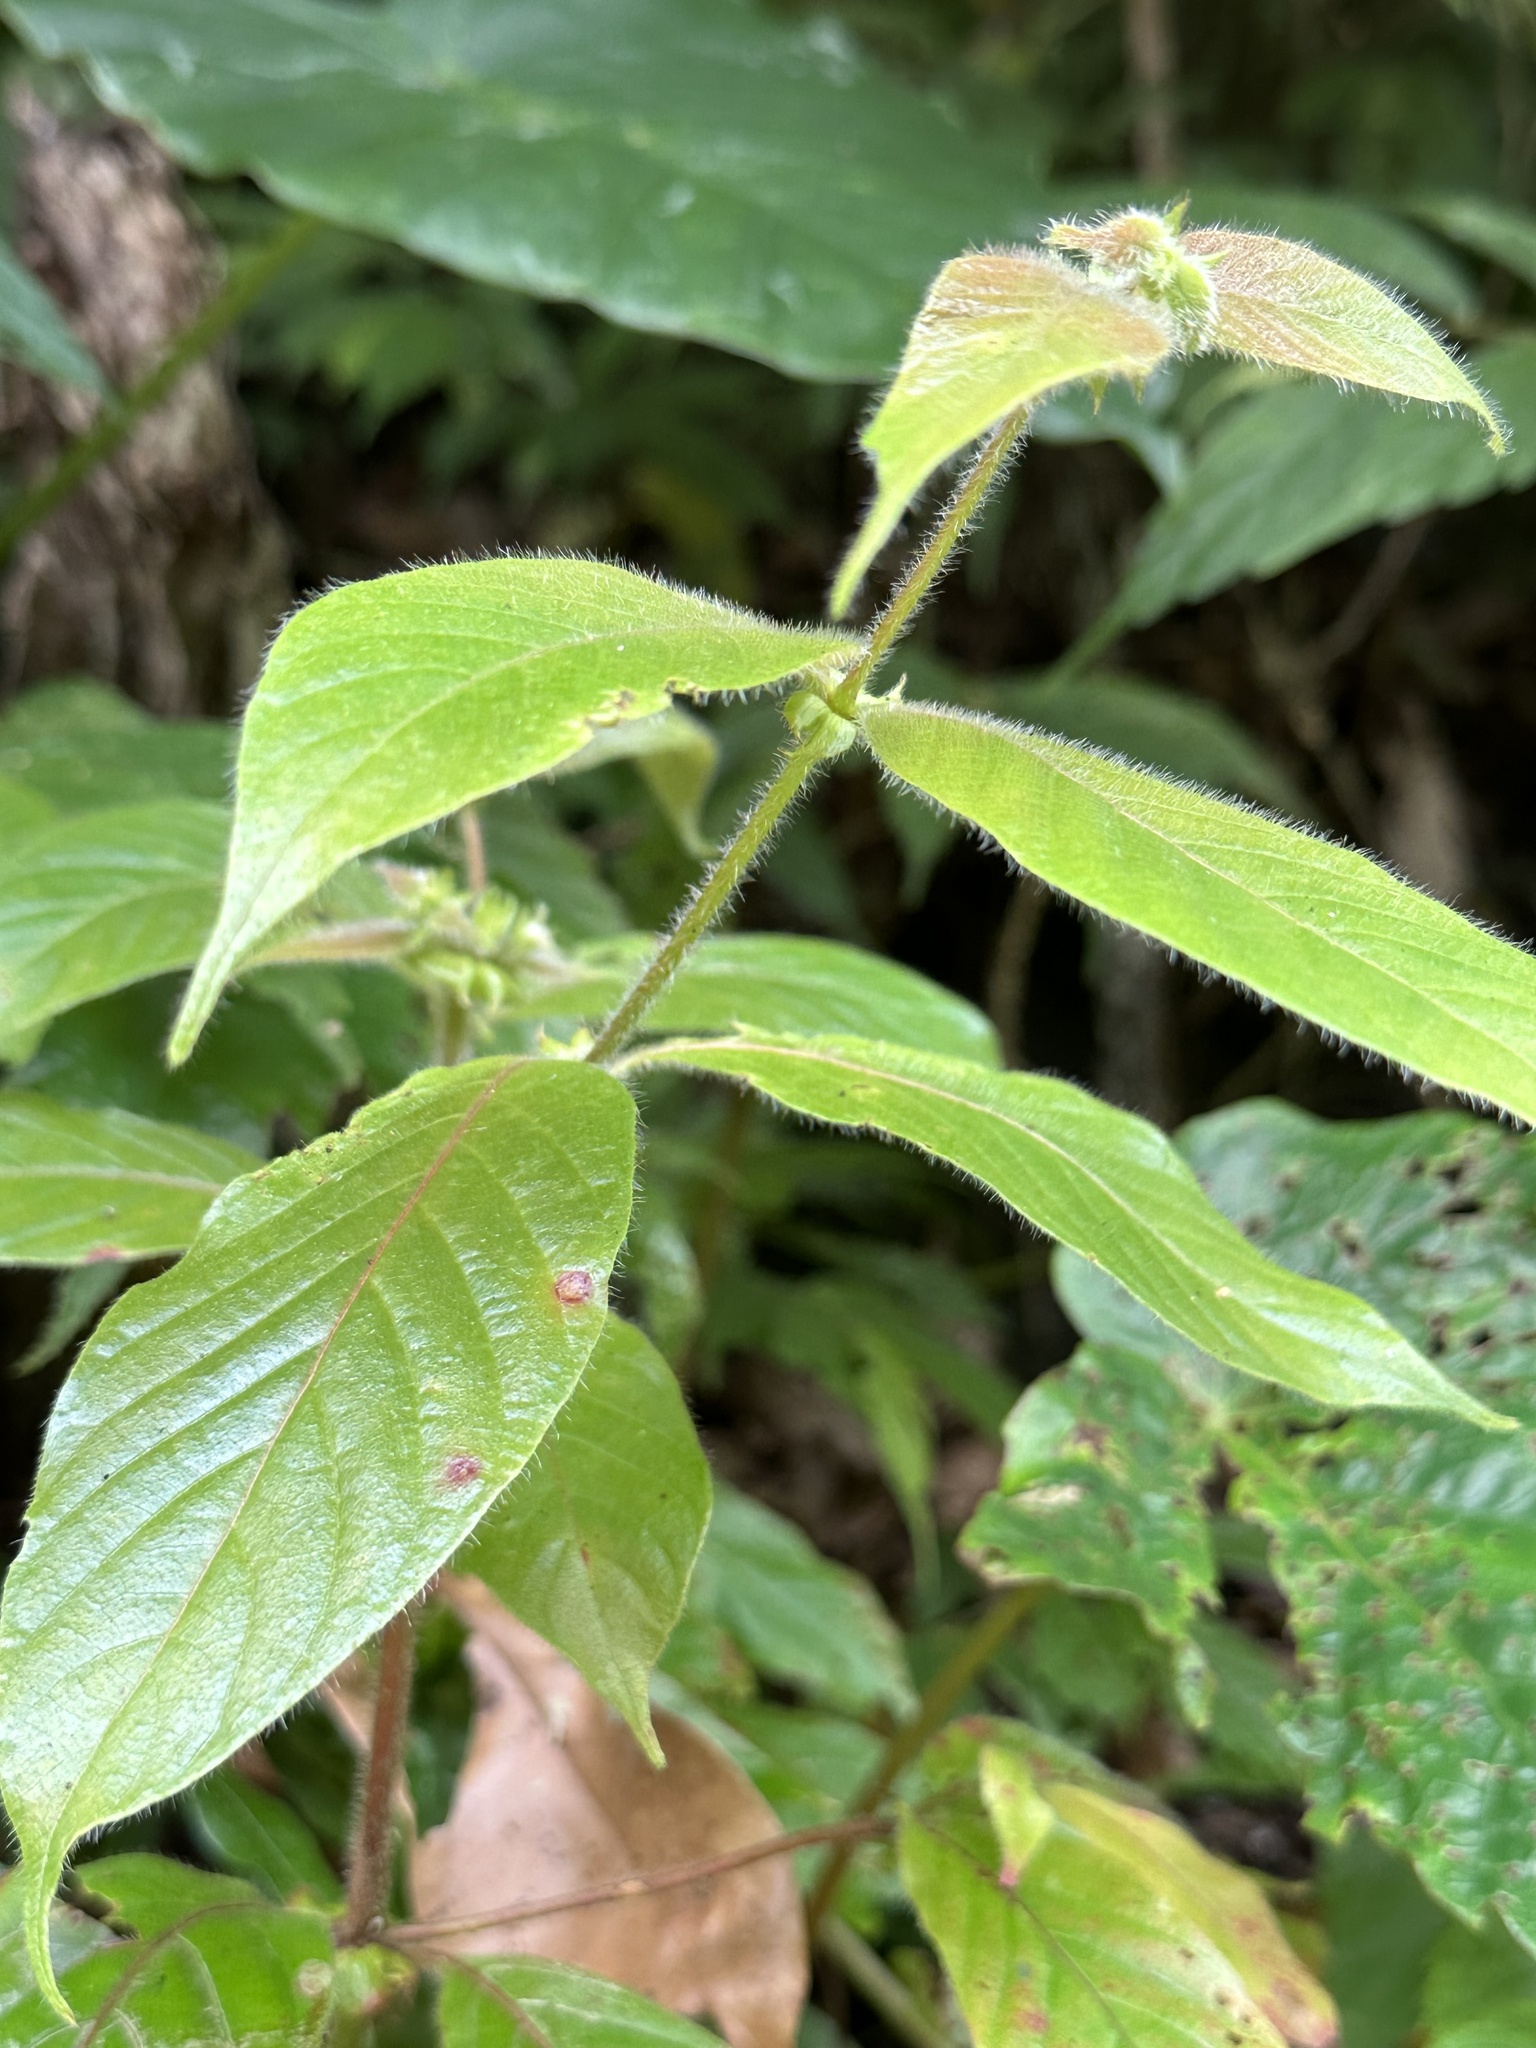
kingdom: Plantae
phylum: Tracheophyta
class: Magnoliopsida
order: Gentianales
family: Rubiaceae
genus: Uncaria
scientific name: Uncaria hirsuta
